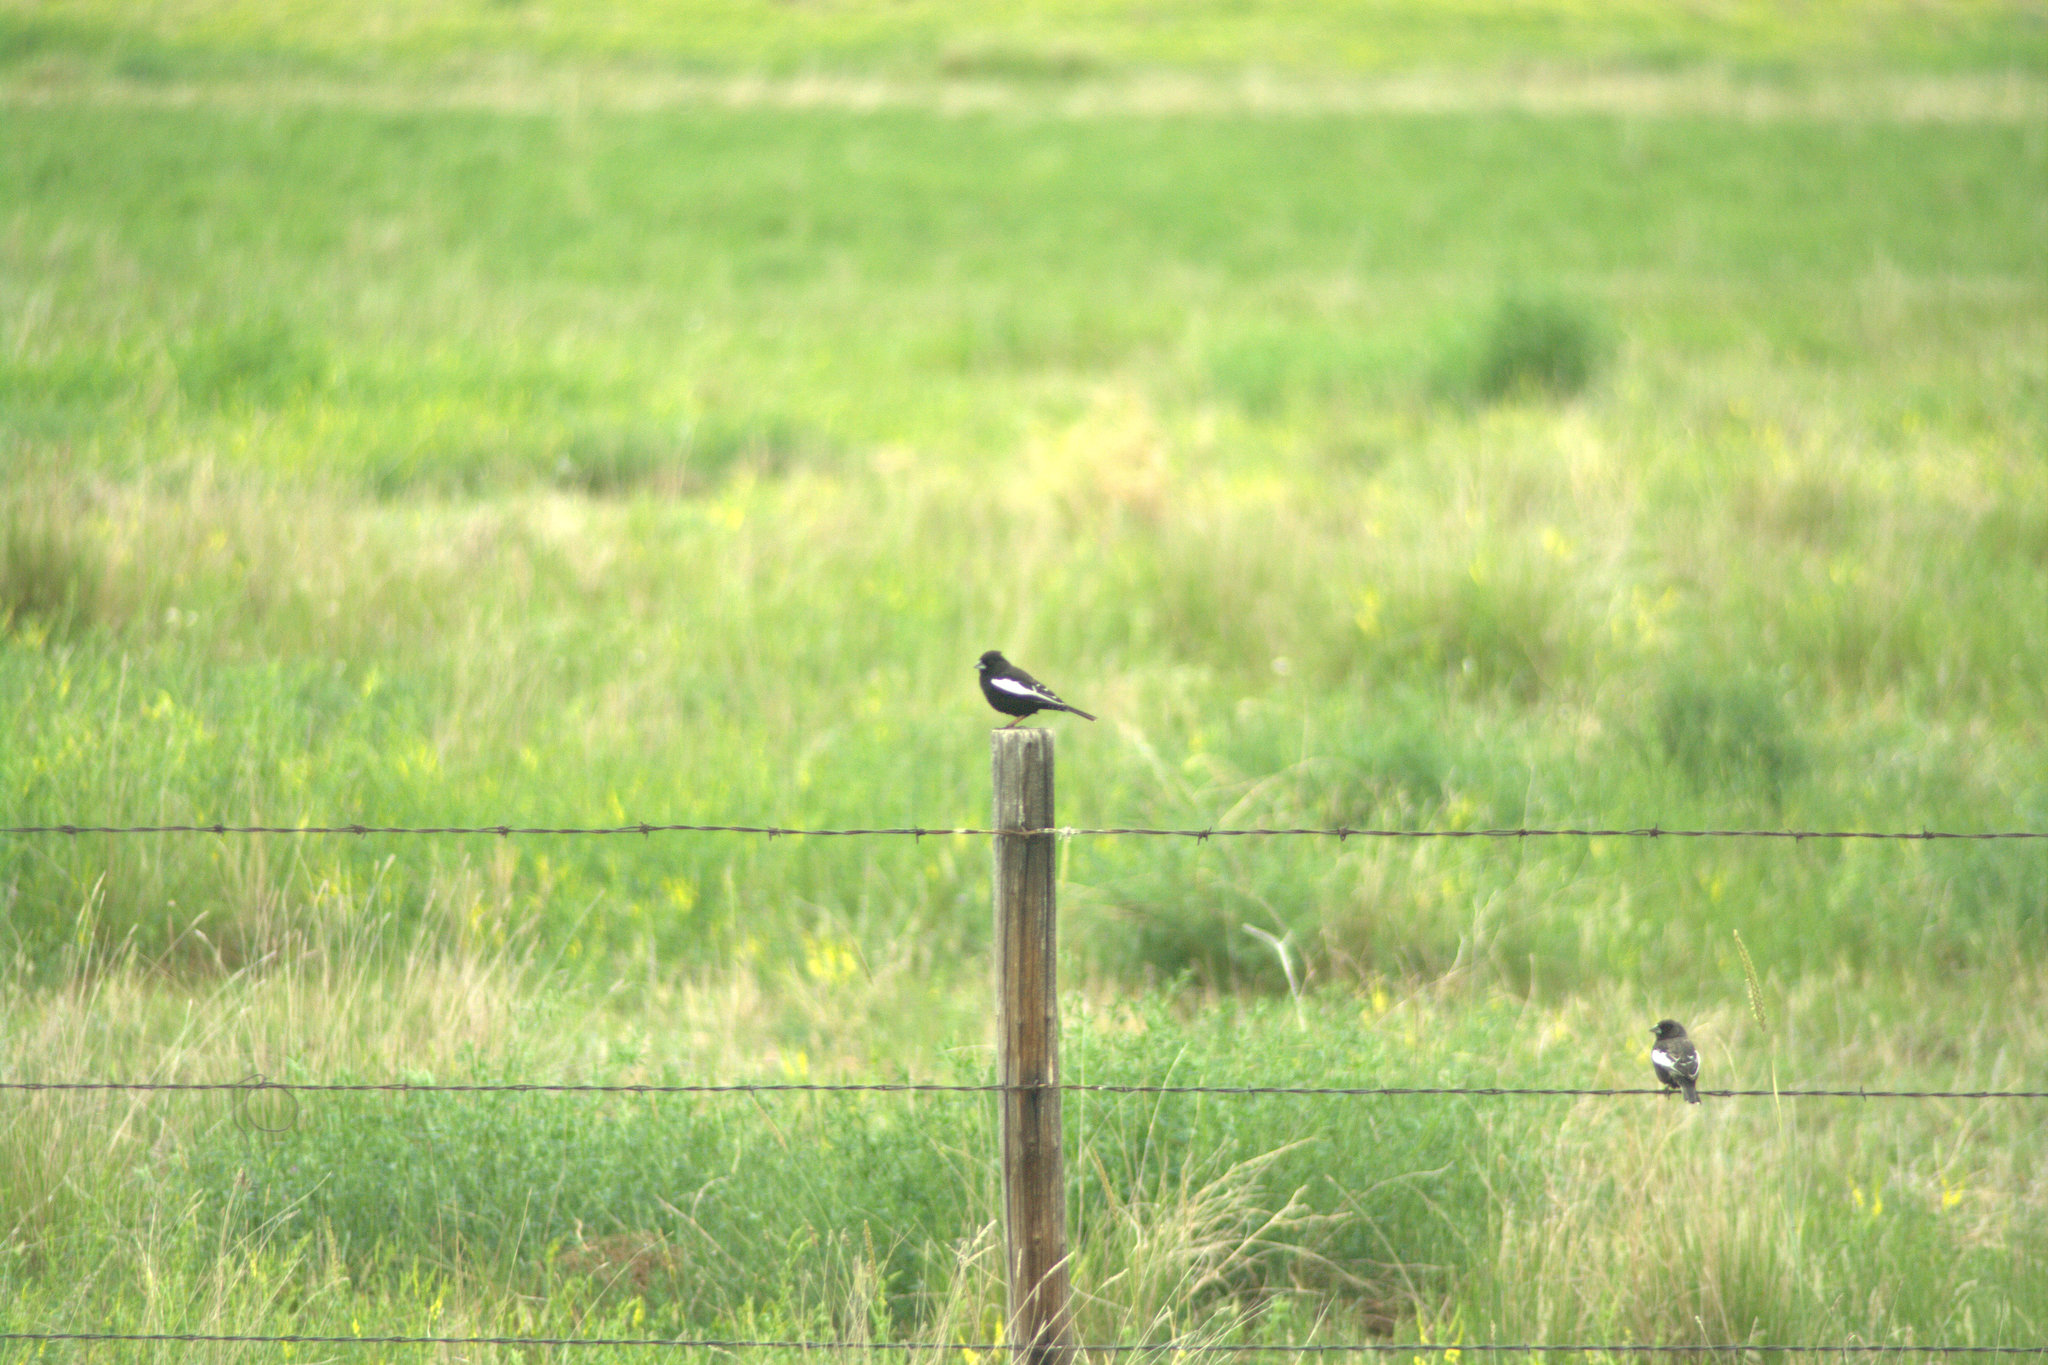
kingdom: Animalia
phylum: Chordata
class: Aves
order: Passeriformes
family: Passerellidae
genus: Calamospiza
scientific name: Calamospiza melanocorys
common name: Lark bunting
